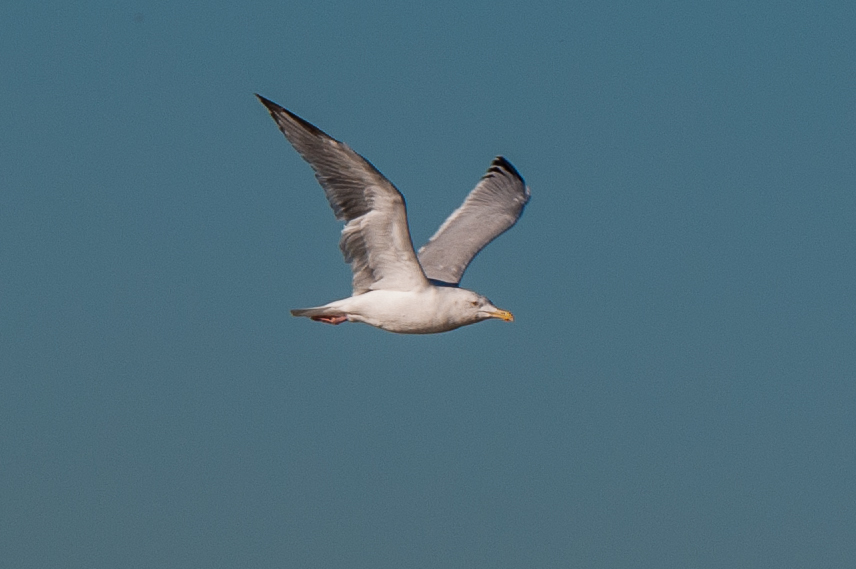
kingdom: Animalia
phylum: Chordata
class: Aves
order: Charadriiformes
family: Laridae
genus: Larus
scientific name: Larus argentatus
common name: Herring gull
